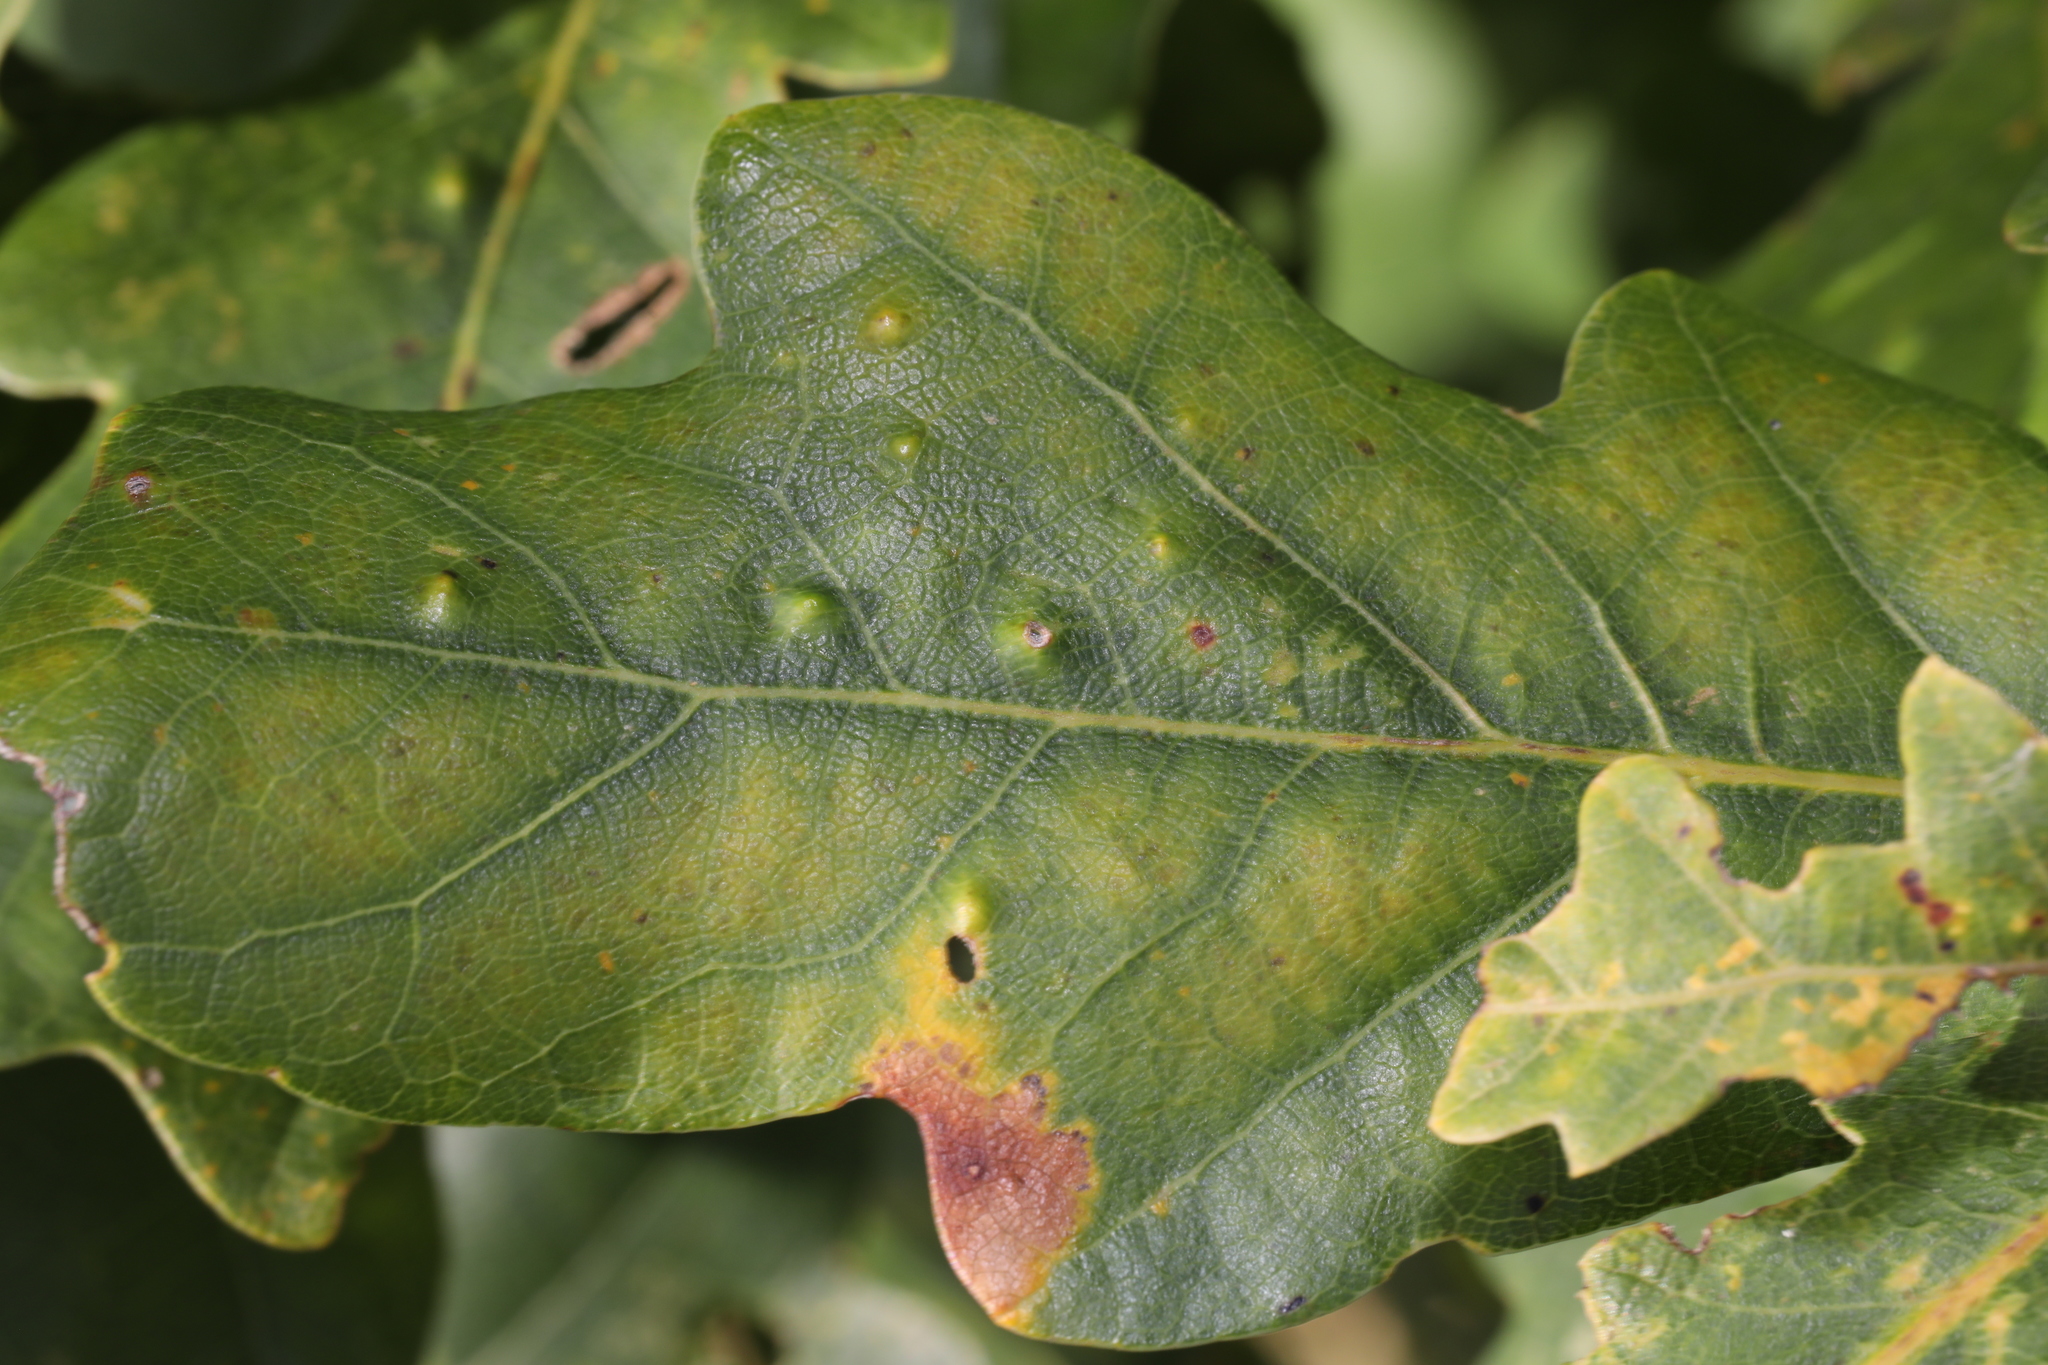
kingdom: Animalia
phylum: Arthropoda
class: Insecta
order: Hemiptera
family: Triozidae
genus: Trioza
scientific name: Trioza remota
